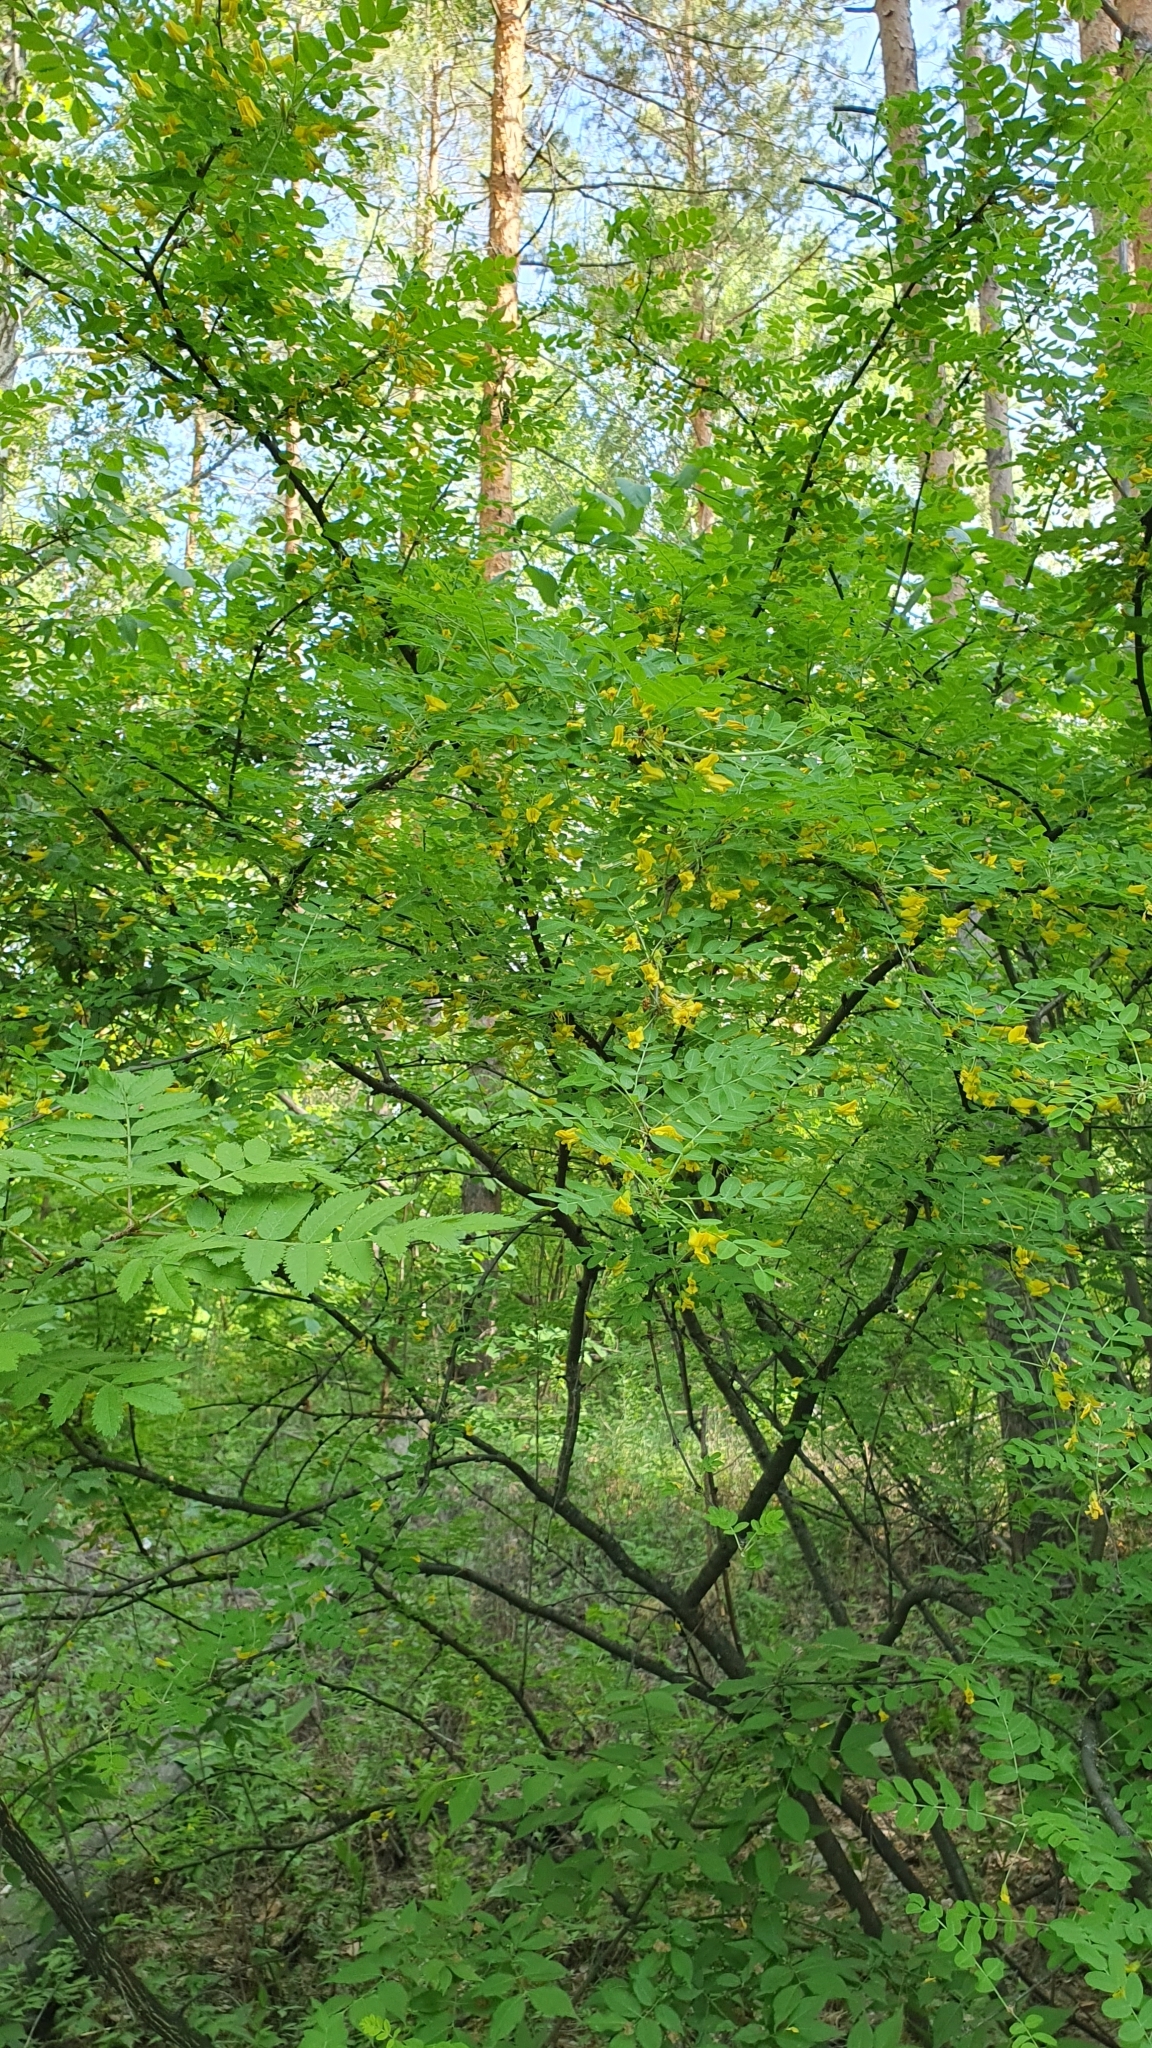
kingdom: Plantae
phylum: Tracheophyta
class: Magnoliopsida
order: Fabales
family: Fabaceae
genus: Caragana
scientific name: Caragana arborescens
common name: Siberian peashrub
